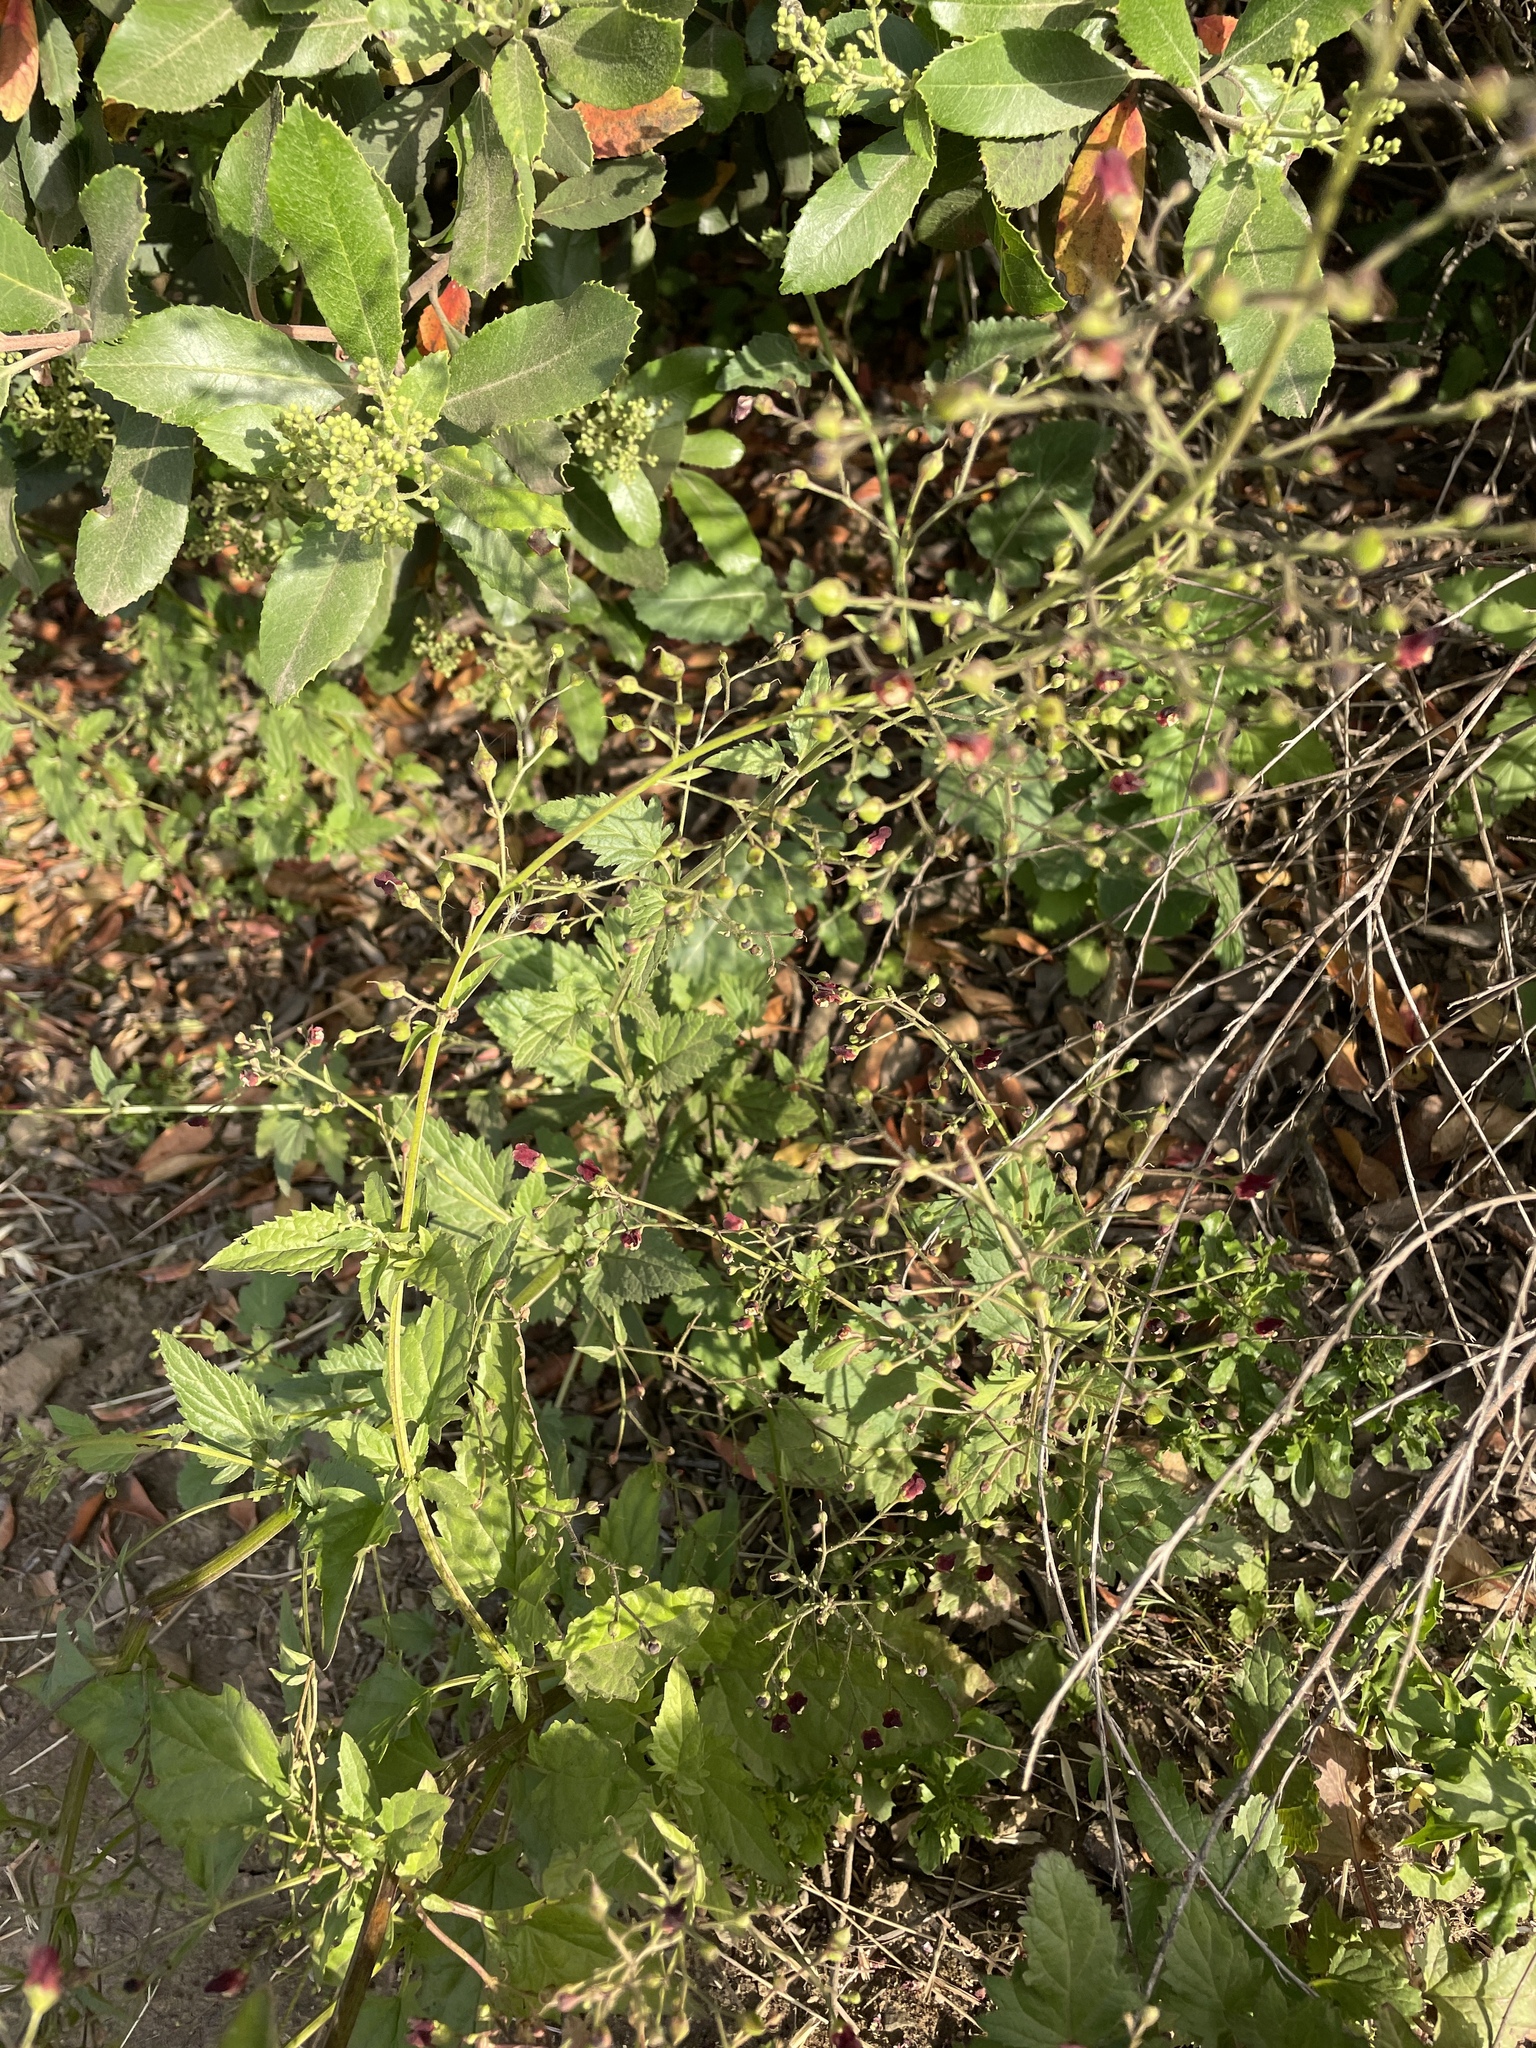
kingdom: Plantae
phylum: Tracheophyta
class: Magnoliopsida
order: Lamiales
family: Scrophulariaceae
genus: Scrophularia
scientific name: Scrophularia californica
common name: California figwort
